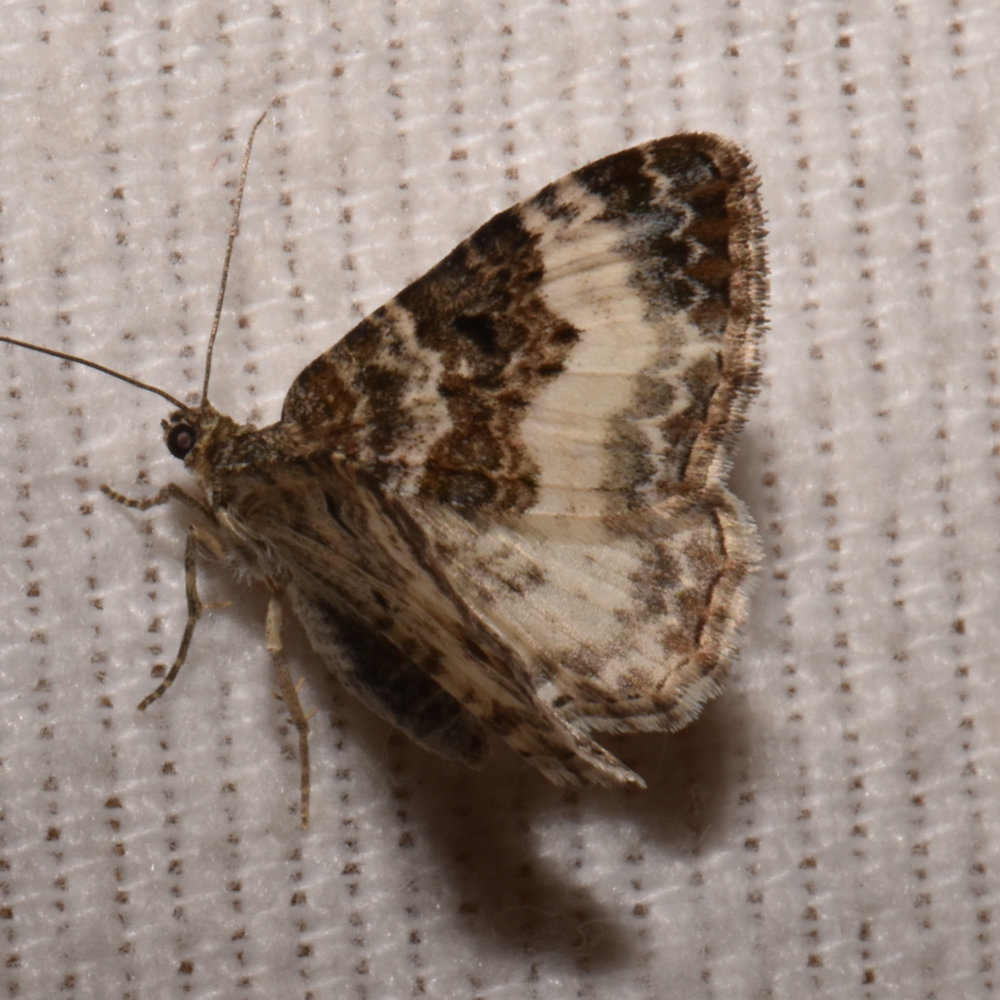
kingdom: Animalia
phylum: Arthropoda
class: Insecta
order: Lepidoptera
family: Geometridae
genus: Epirrhoe
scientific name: Epirrhoe alternata
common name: Common carpet
